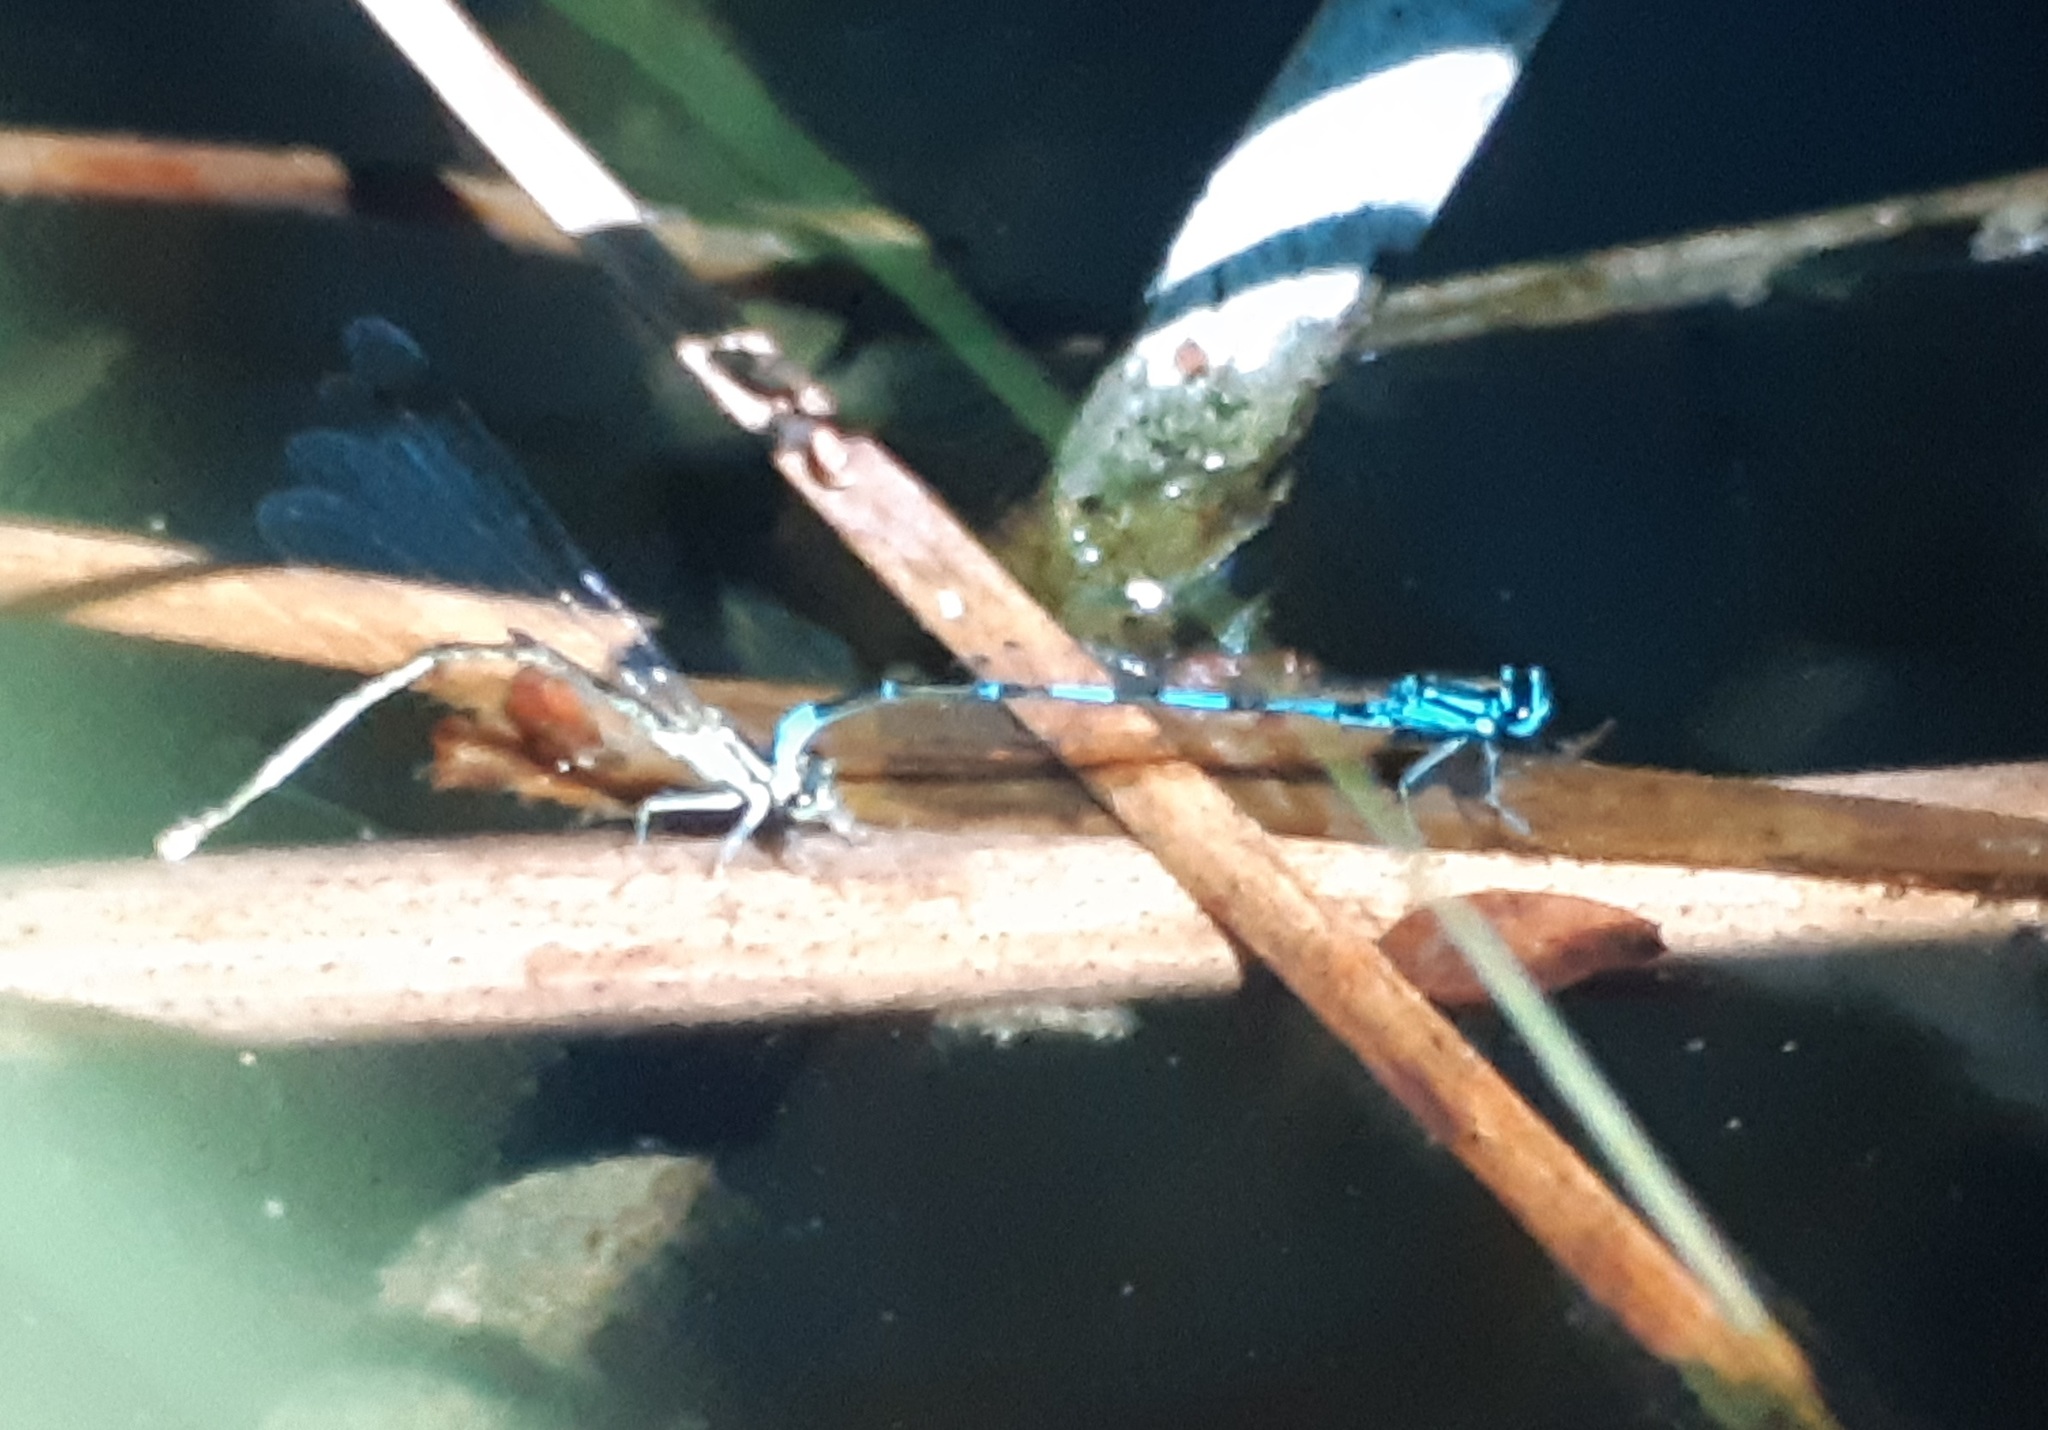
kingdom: Animalia
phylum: Arthropoda
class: Insecta
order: Odonata
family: Coenagrionidae
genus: Coenagrion
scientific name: Coenagrion pulchellum
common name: Variable bluet
